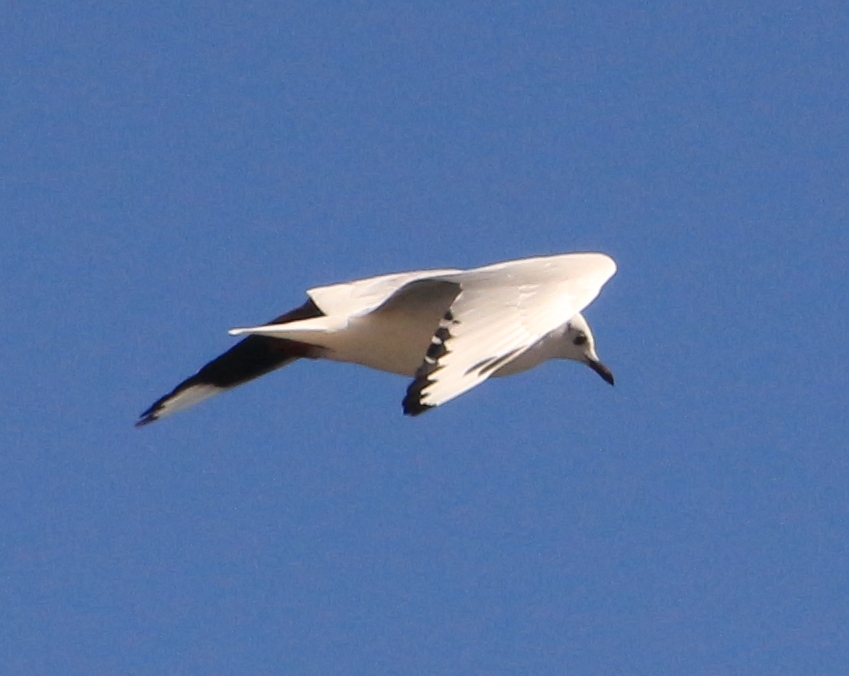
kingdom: Animalia
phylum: Chordata
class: Aves
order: Charadriiformes
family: Laridae
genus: Chroicocephalus
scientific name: Chroicocephalus serranus
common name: Andean gull
